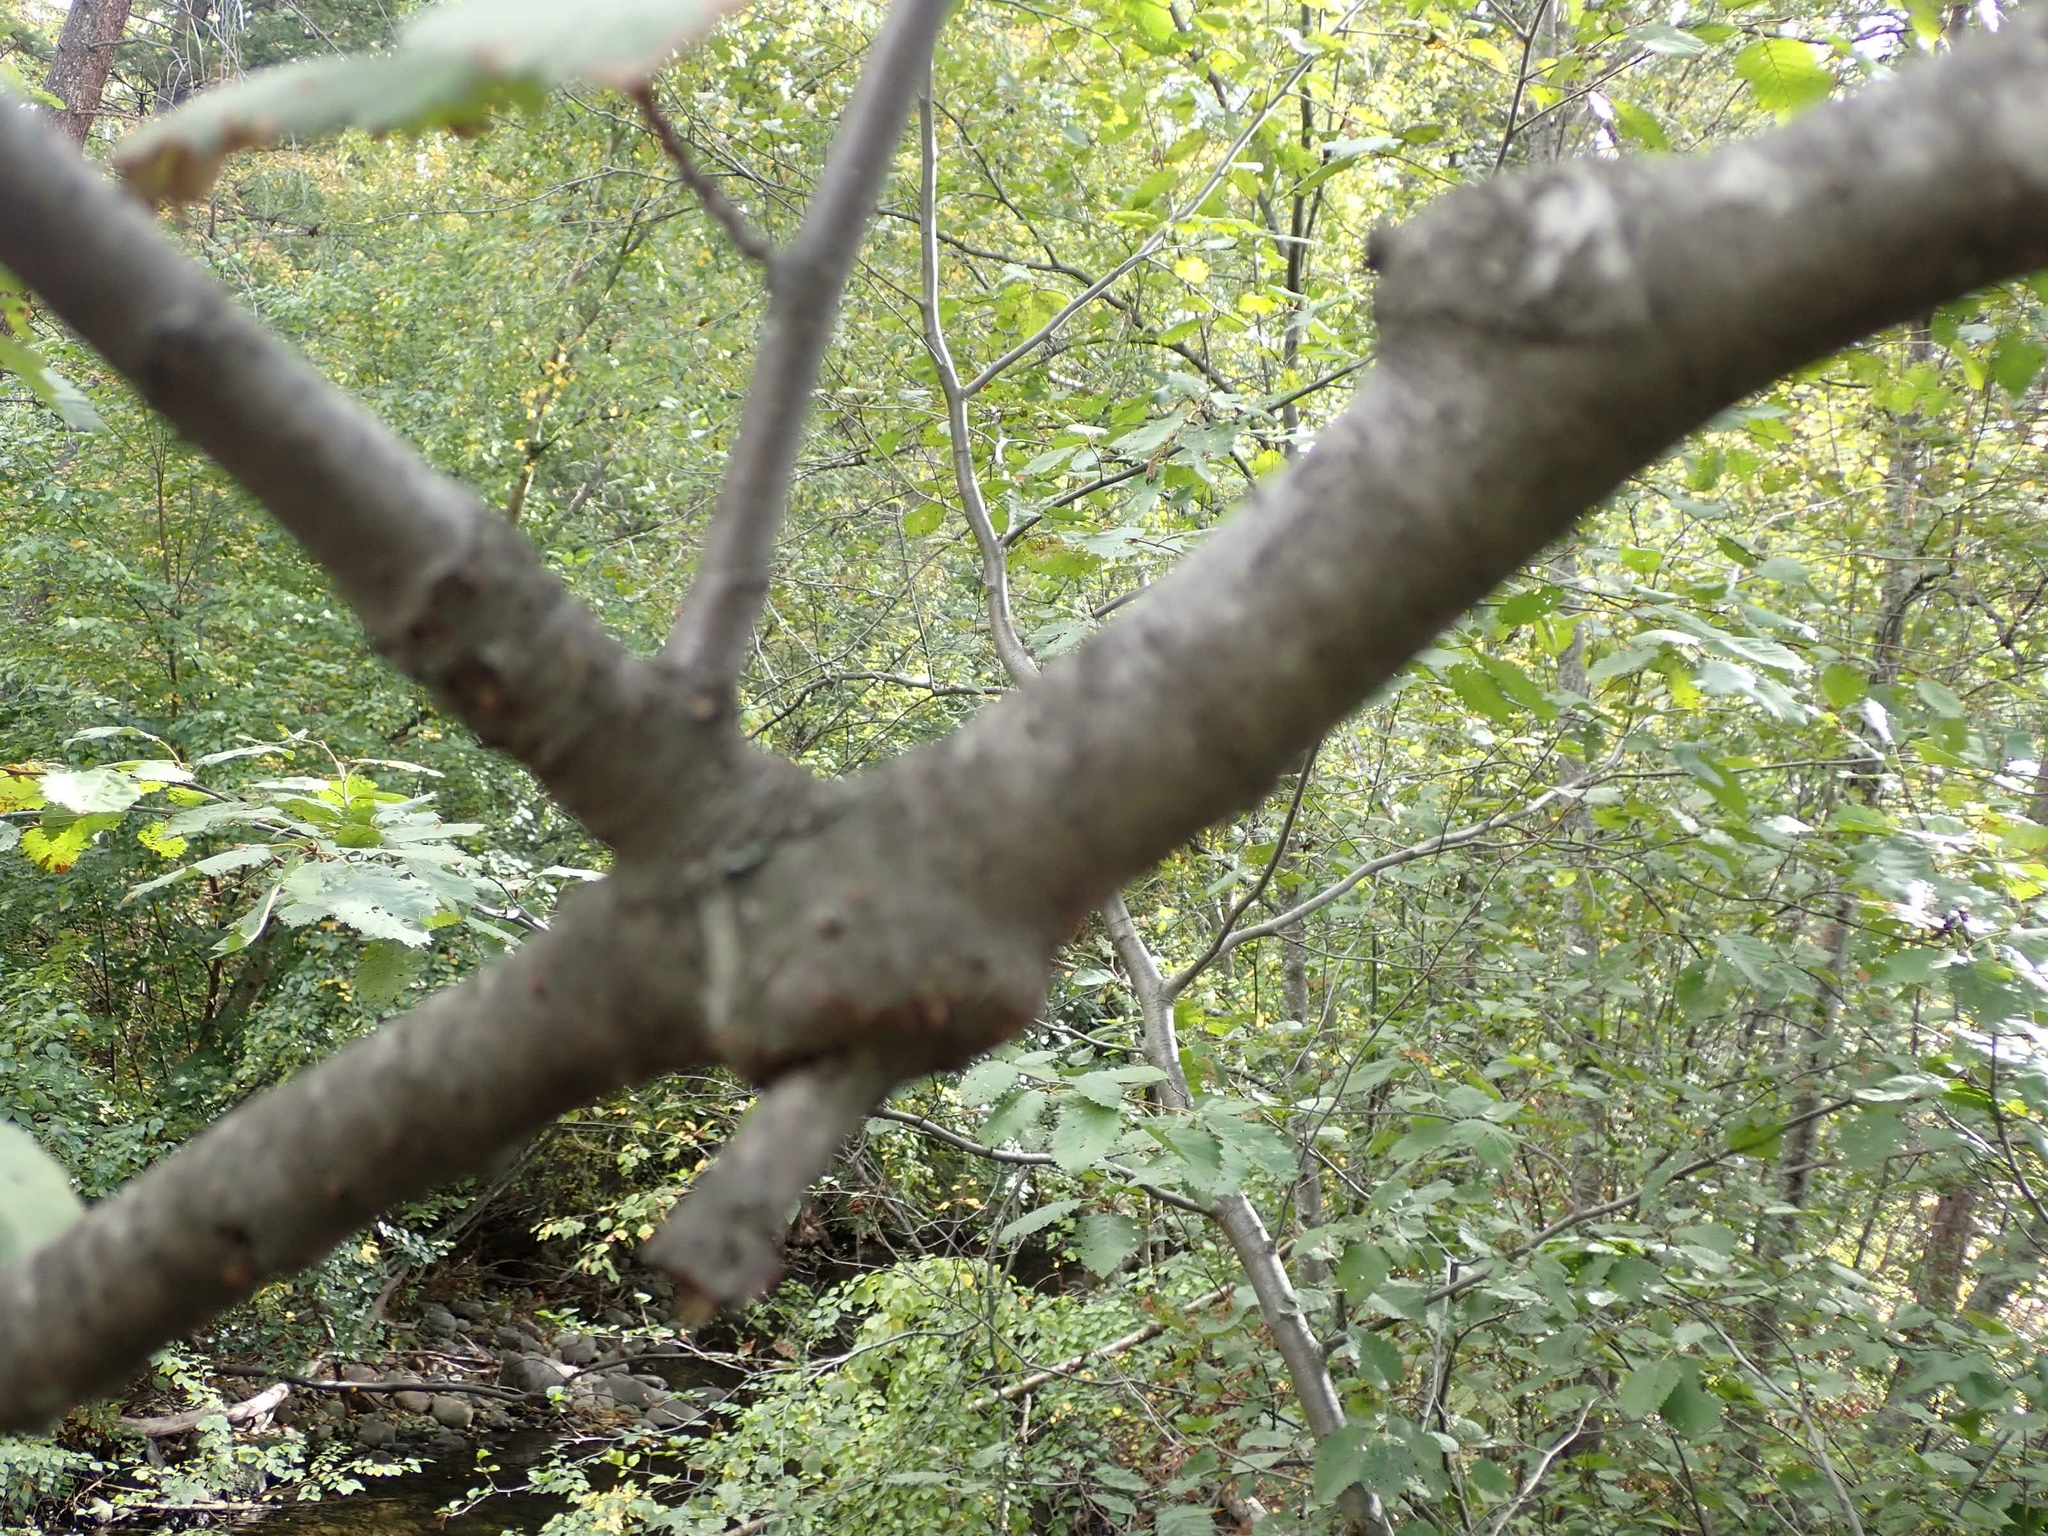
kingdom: Plantae
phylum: Tracheophyta
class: Magnoliopsida
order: Fagales
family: Betulaceae
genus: Alnus
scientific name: Alnus incana
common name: Grey alder
